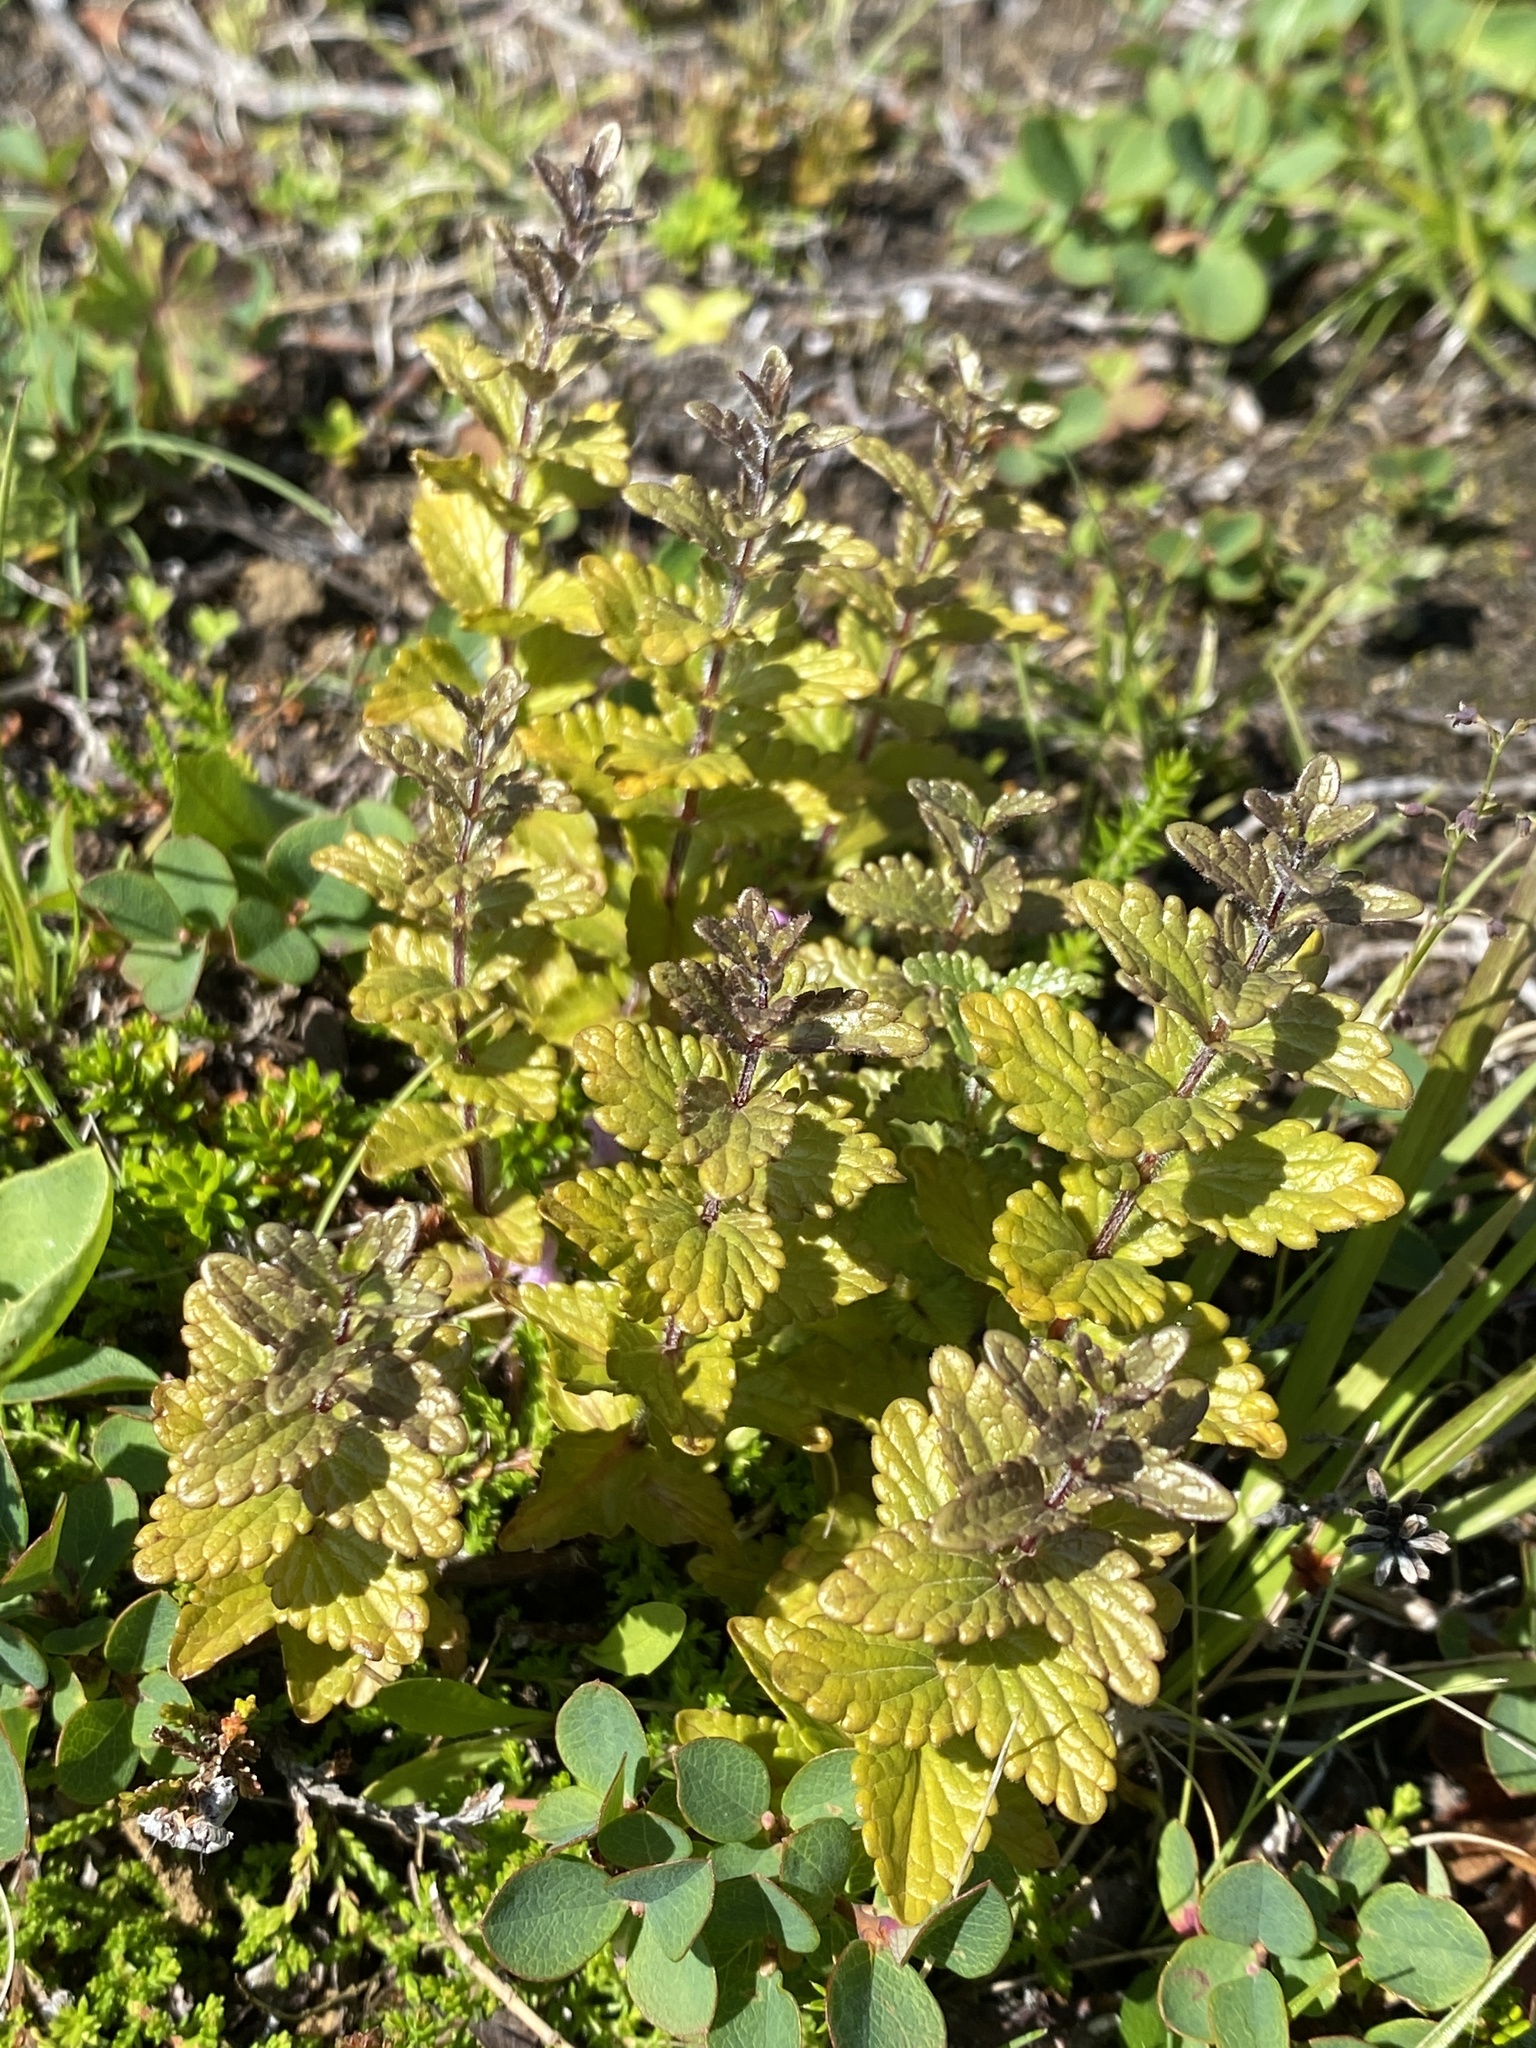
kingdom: Plantae
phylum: Tracheophyta
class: Magnoliopsida
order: Lamiales
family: Orobanchaceae
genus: Bartsia
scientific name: Bartsia alpina
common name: Alpine bartsia
